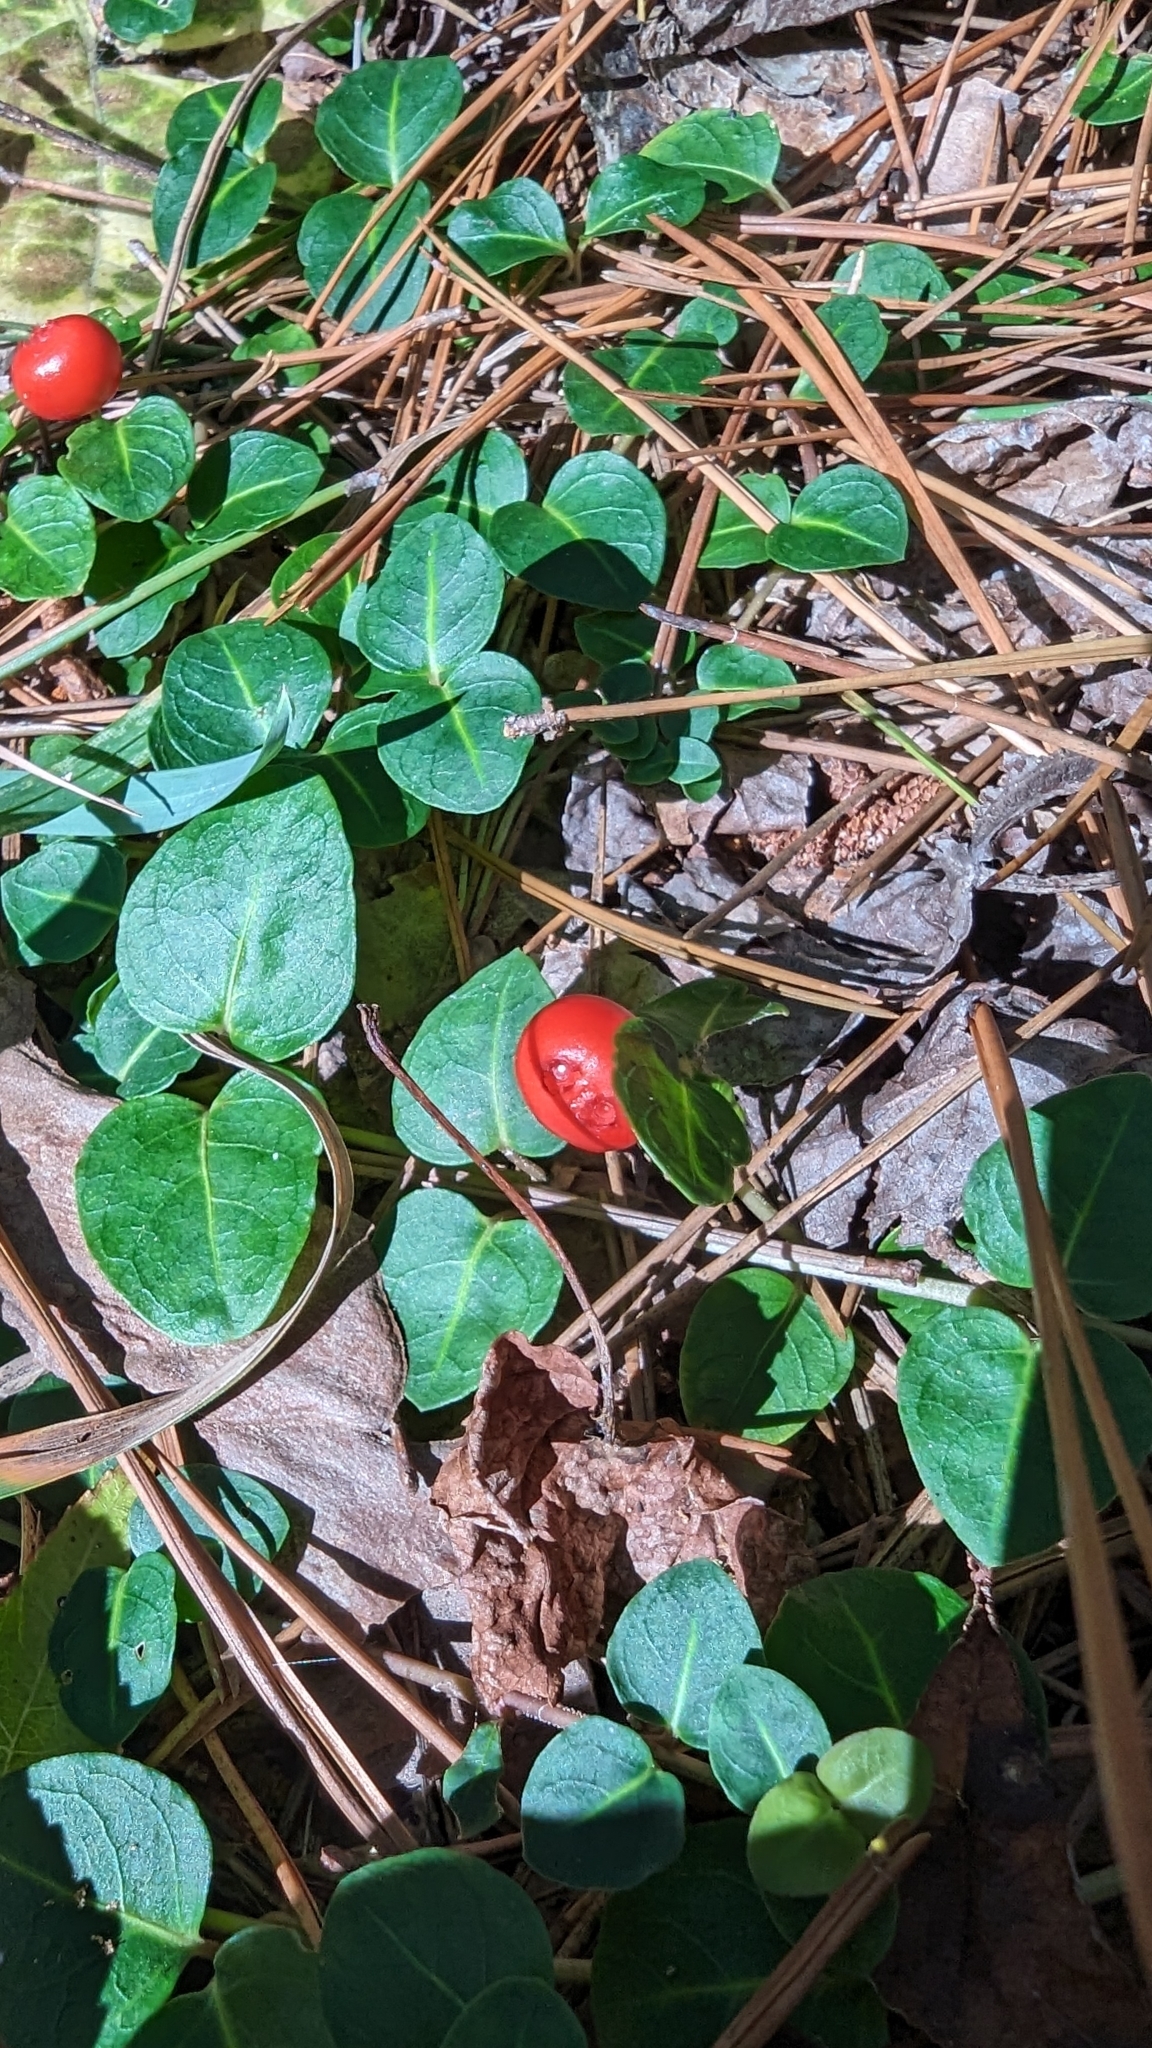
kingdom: Plantae
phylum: Tracheophyta
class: Magnoliopsida
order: Gentianales
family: Rubiaceae
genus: Mitchella
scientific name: Mitchella repens
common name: Partridge-berry
